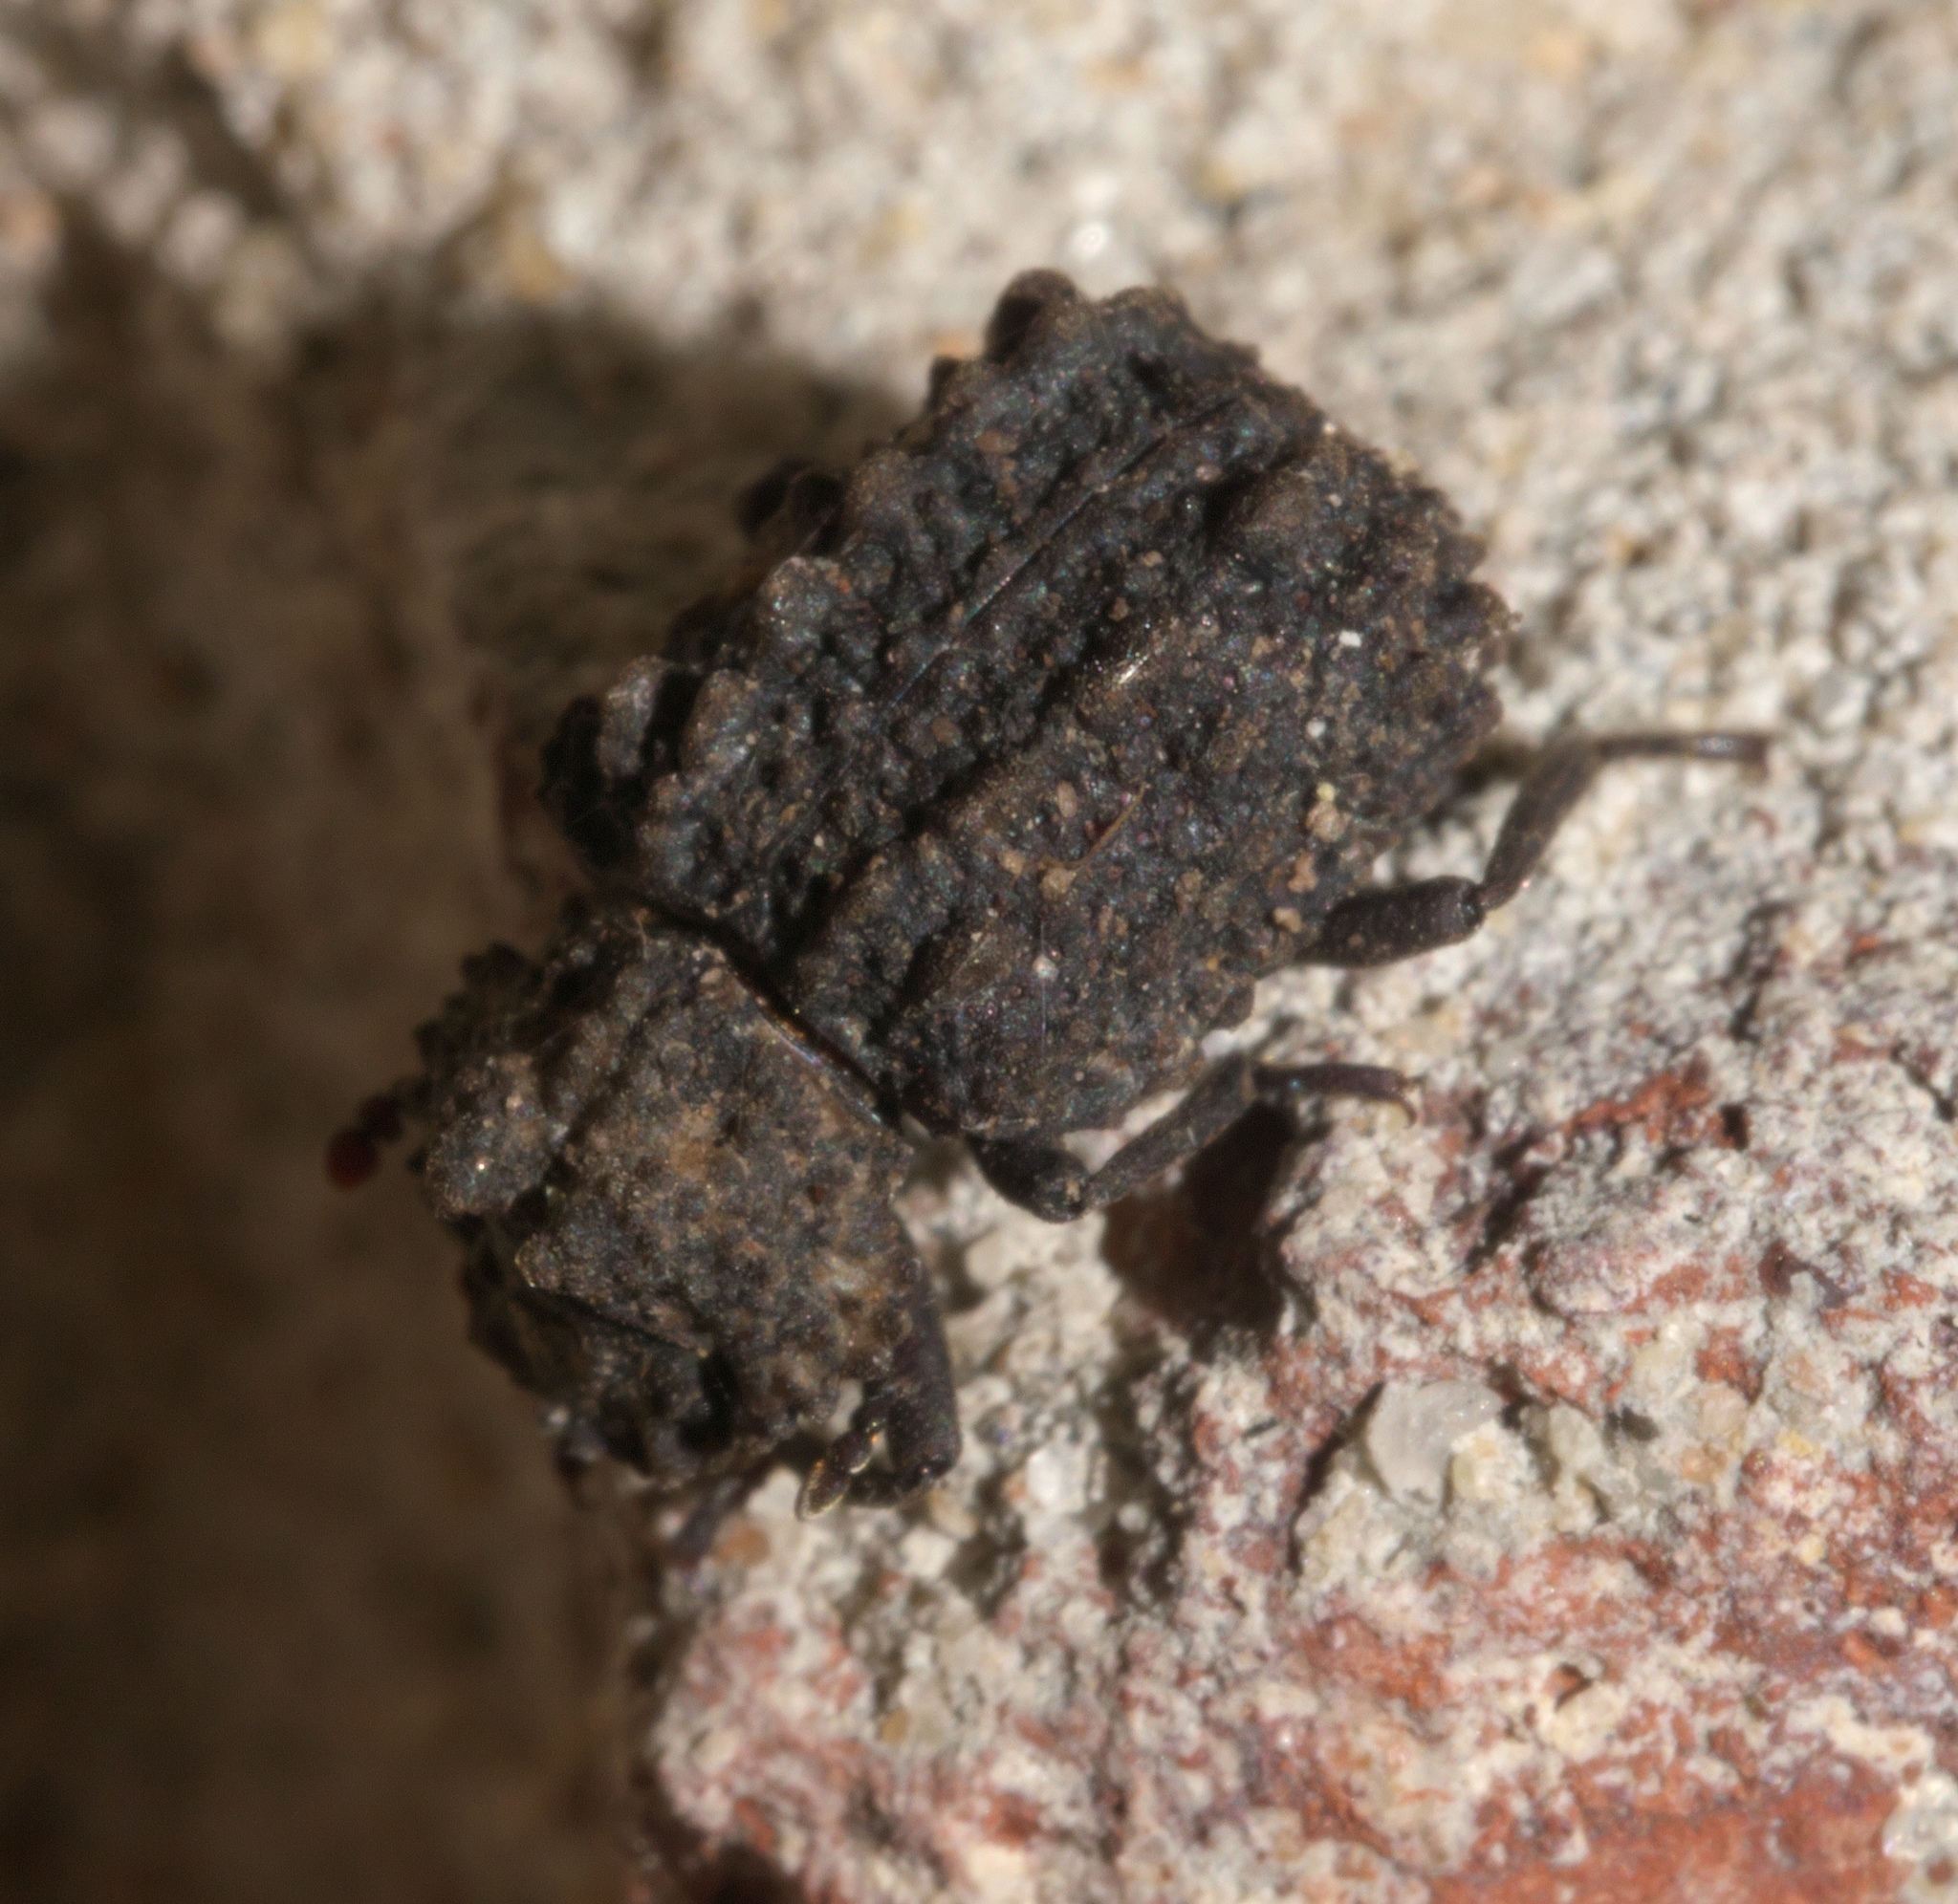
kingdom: Animalia
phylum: Arthropoda
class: Insecta
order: Coleoptera
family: Tenebrionidae
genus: Gnatocerus
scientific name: Gnatocerus cornutus
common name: Broad-horned flour beetle
